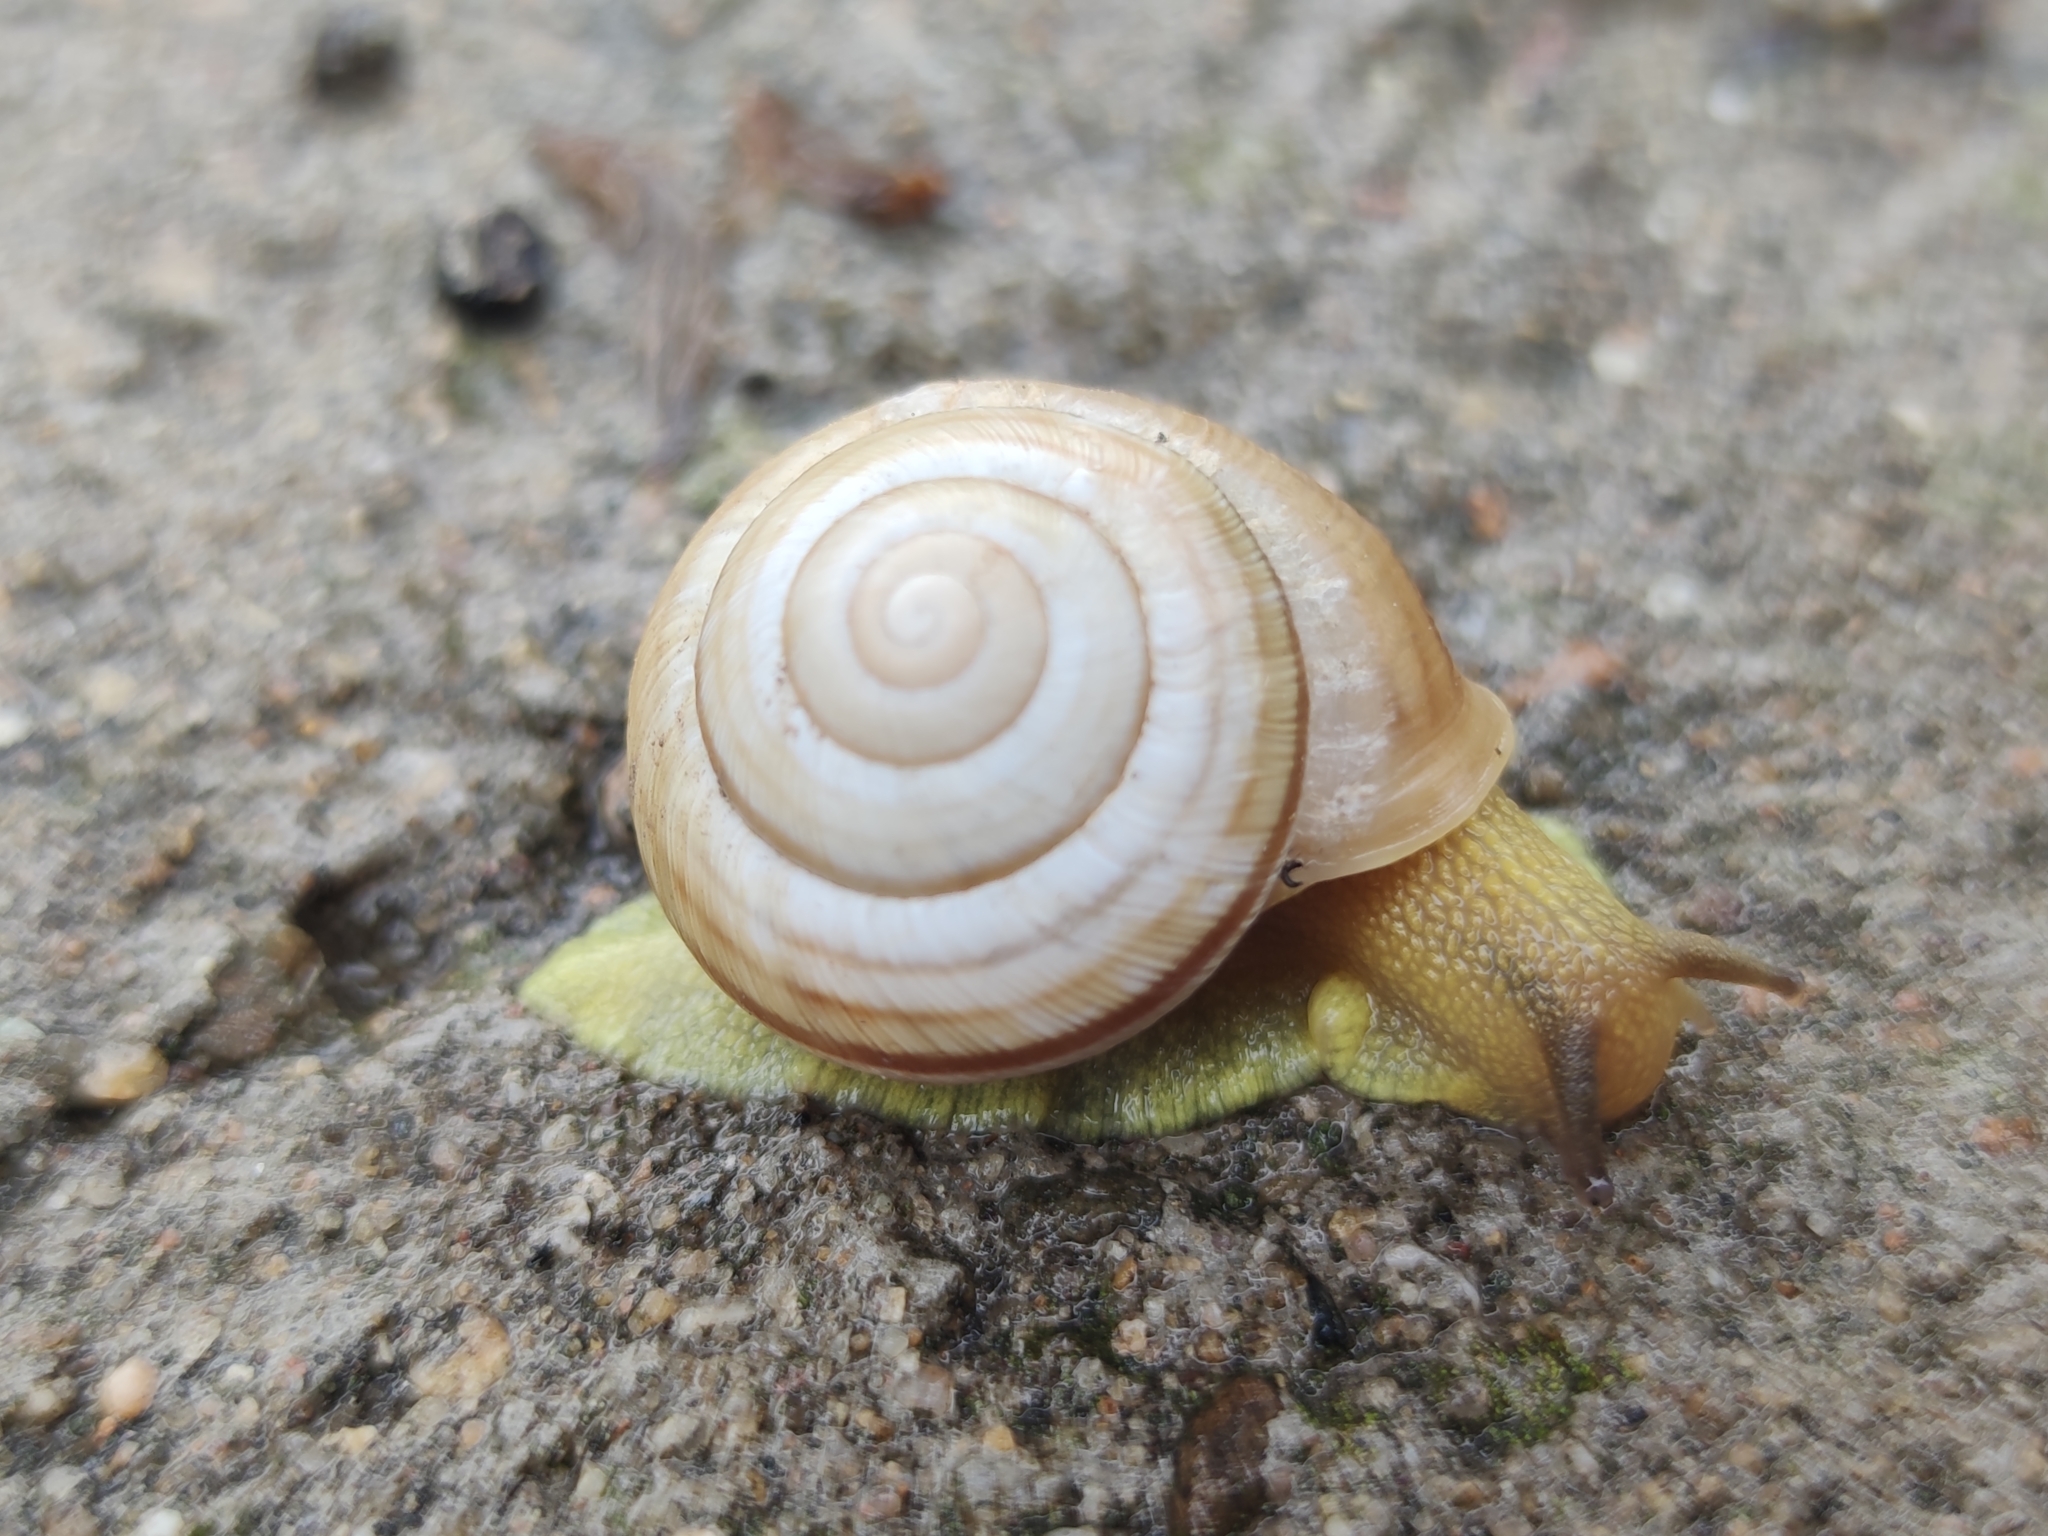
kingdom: Animalia
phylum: Mollusca
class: Gastropoda
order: Stylommatophora
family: Helicidae
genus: Caucasotachea
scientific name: Caucasotachea vindobonensis
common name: European helicid land snail
